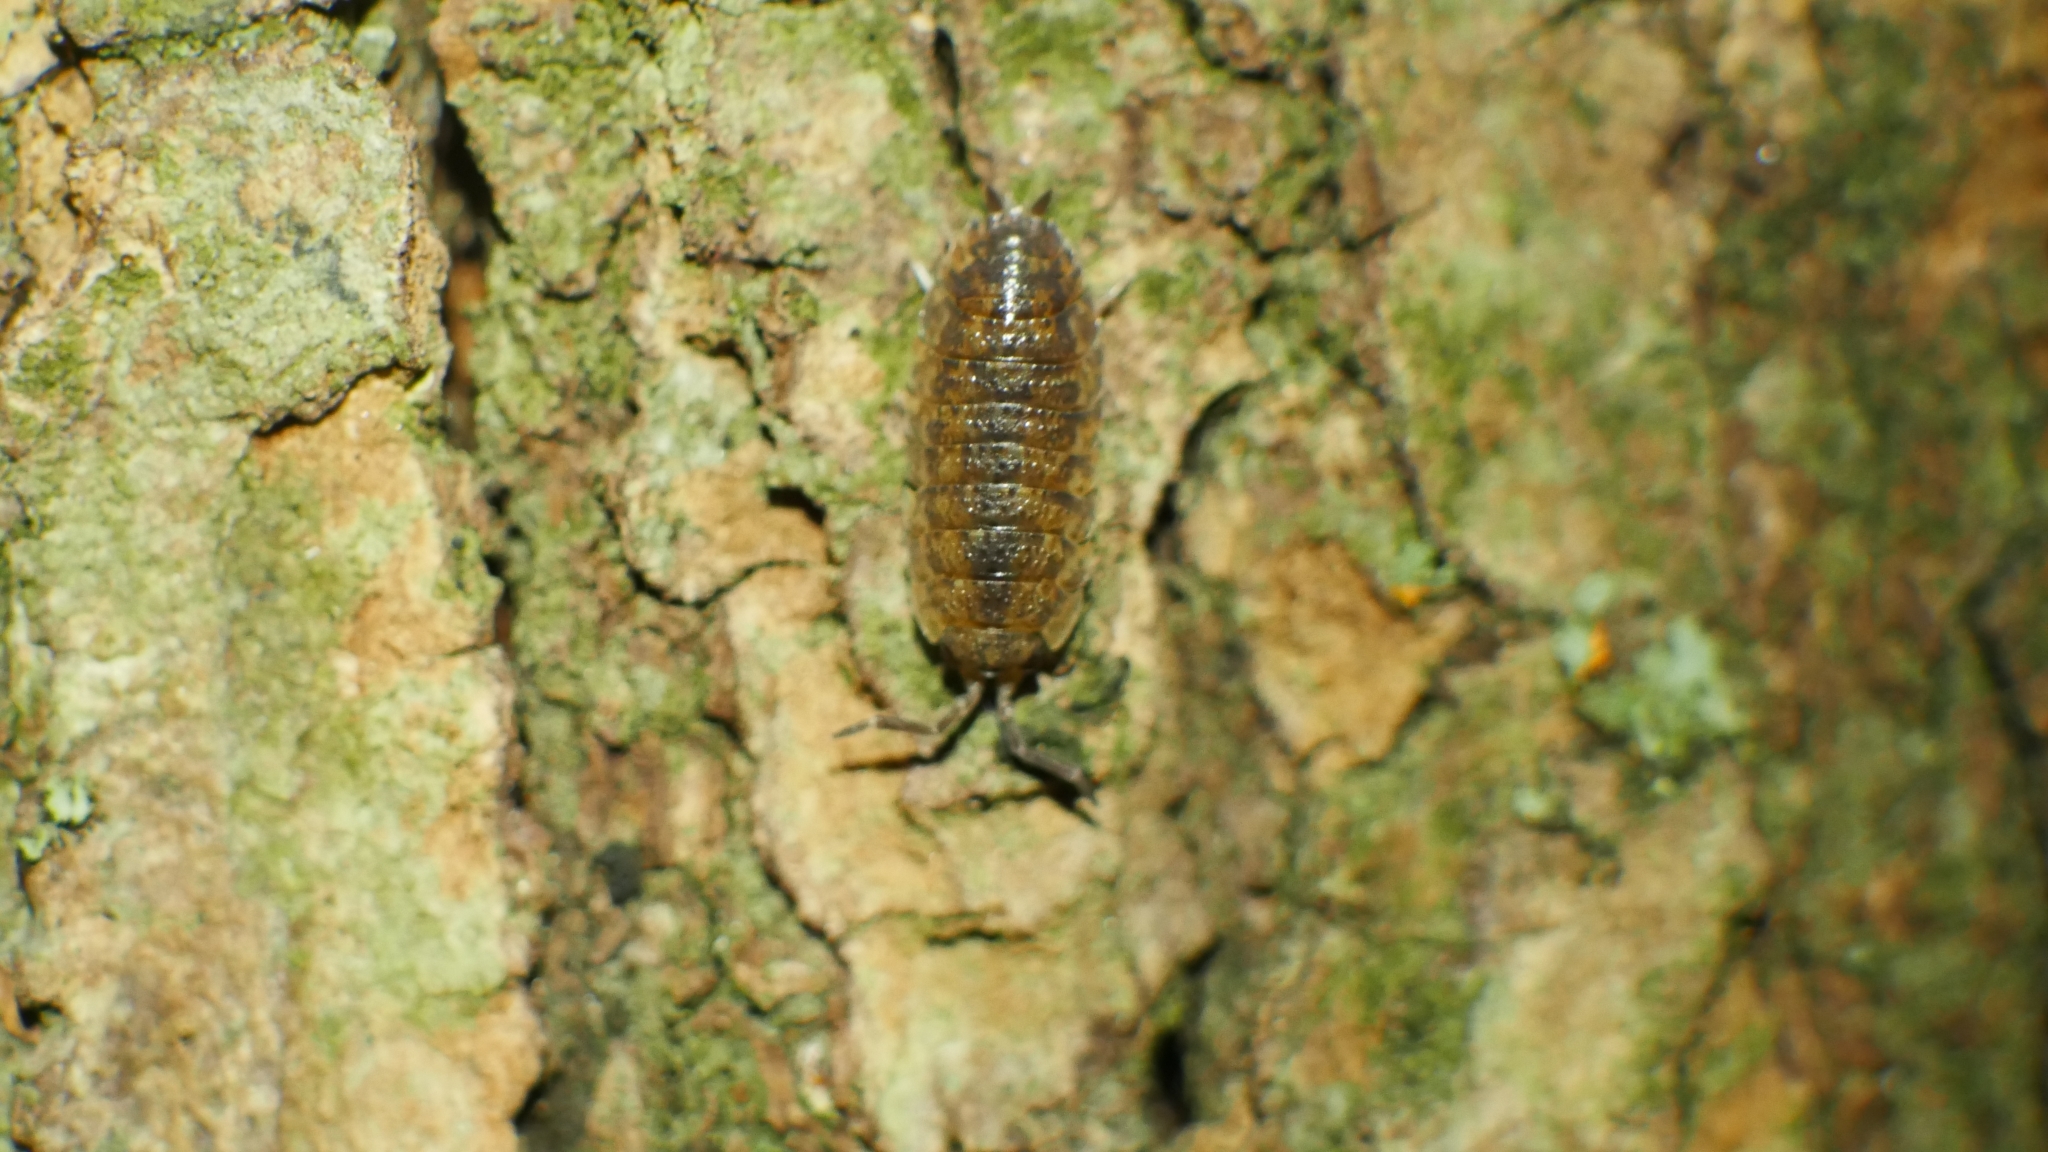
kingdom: Animalia
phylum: Arthropoda
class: Malacostraca
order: Isopoda
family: Porcellionidae
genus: Porcellio
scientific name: Porcellio scaber
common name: Common rough woodlouse
